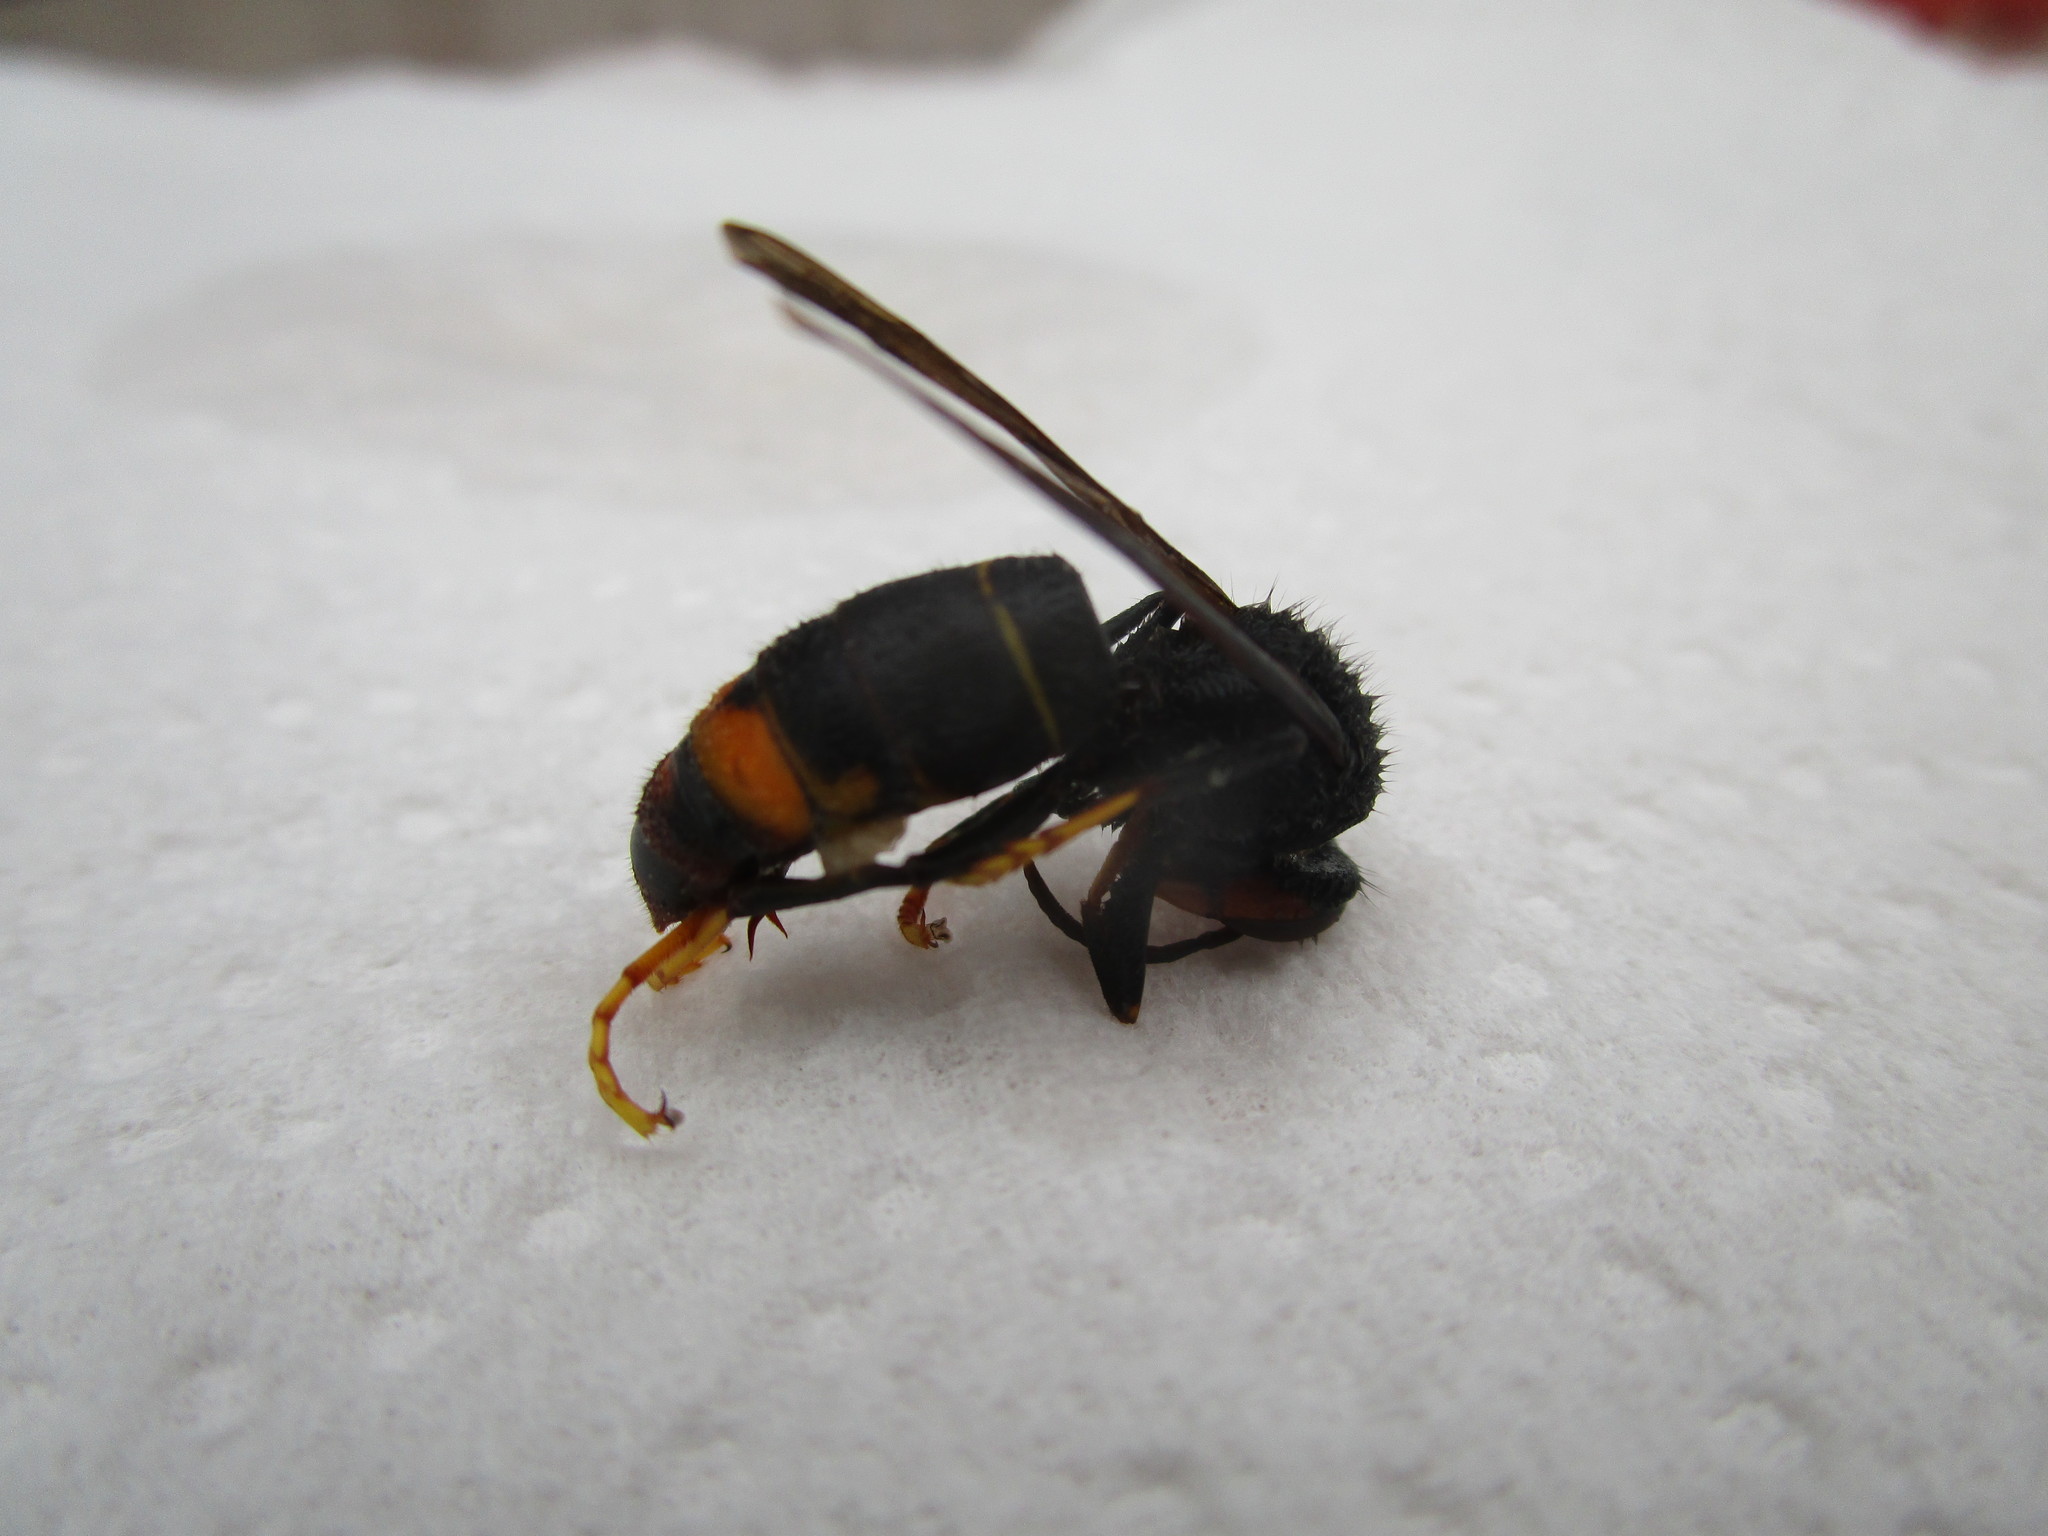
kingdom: Animalia
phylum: Arthropoda
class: Insecta
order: Hymenoptera
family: Vespidae
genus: Vespa
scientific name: Vespa velutina
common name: Asian hornet
